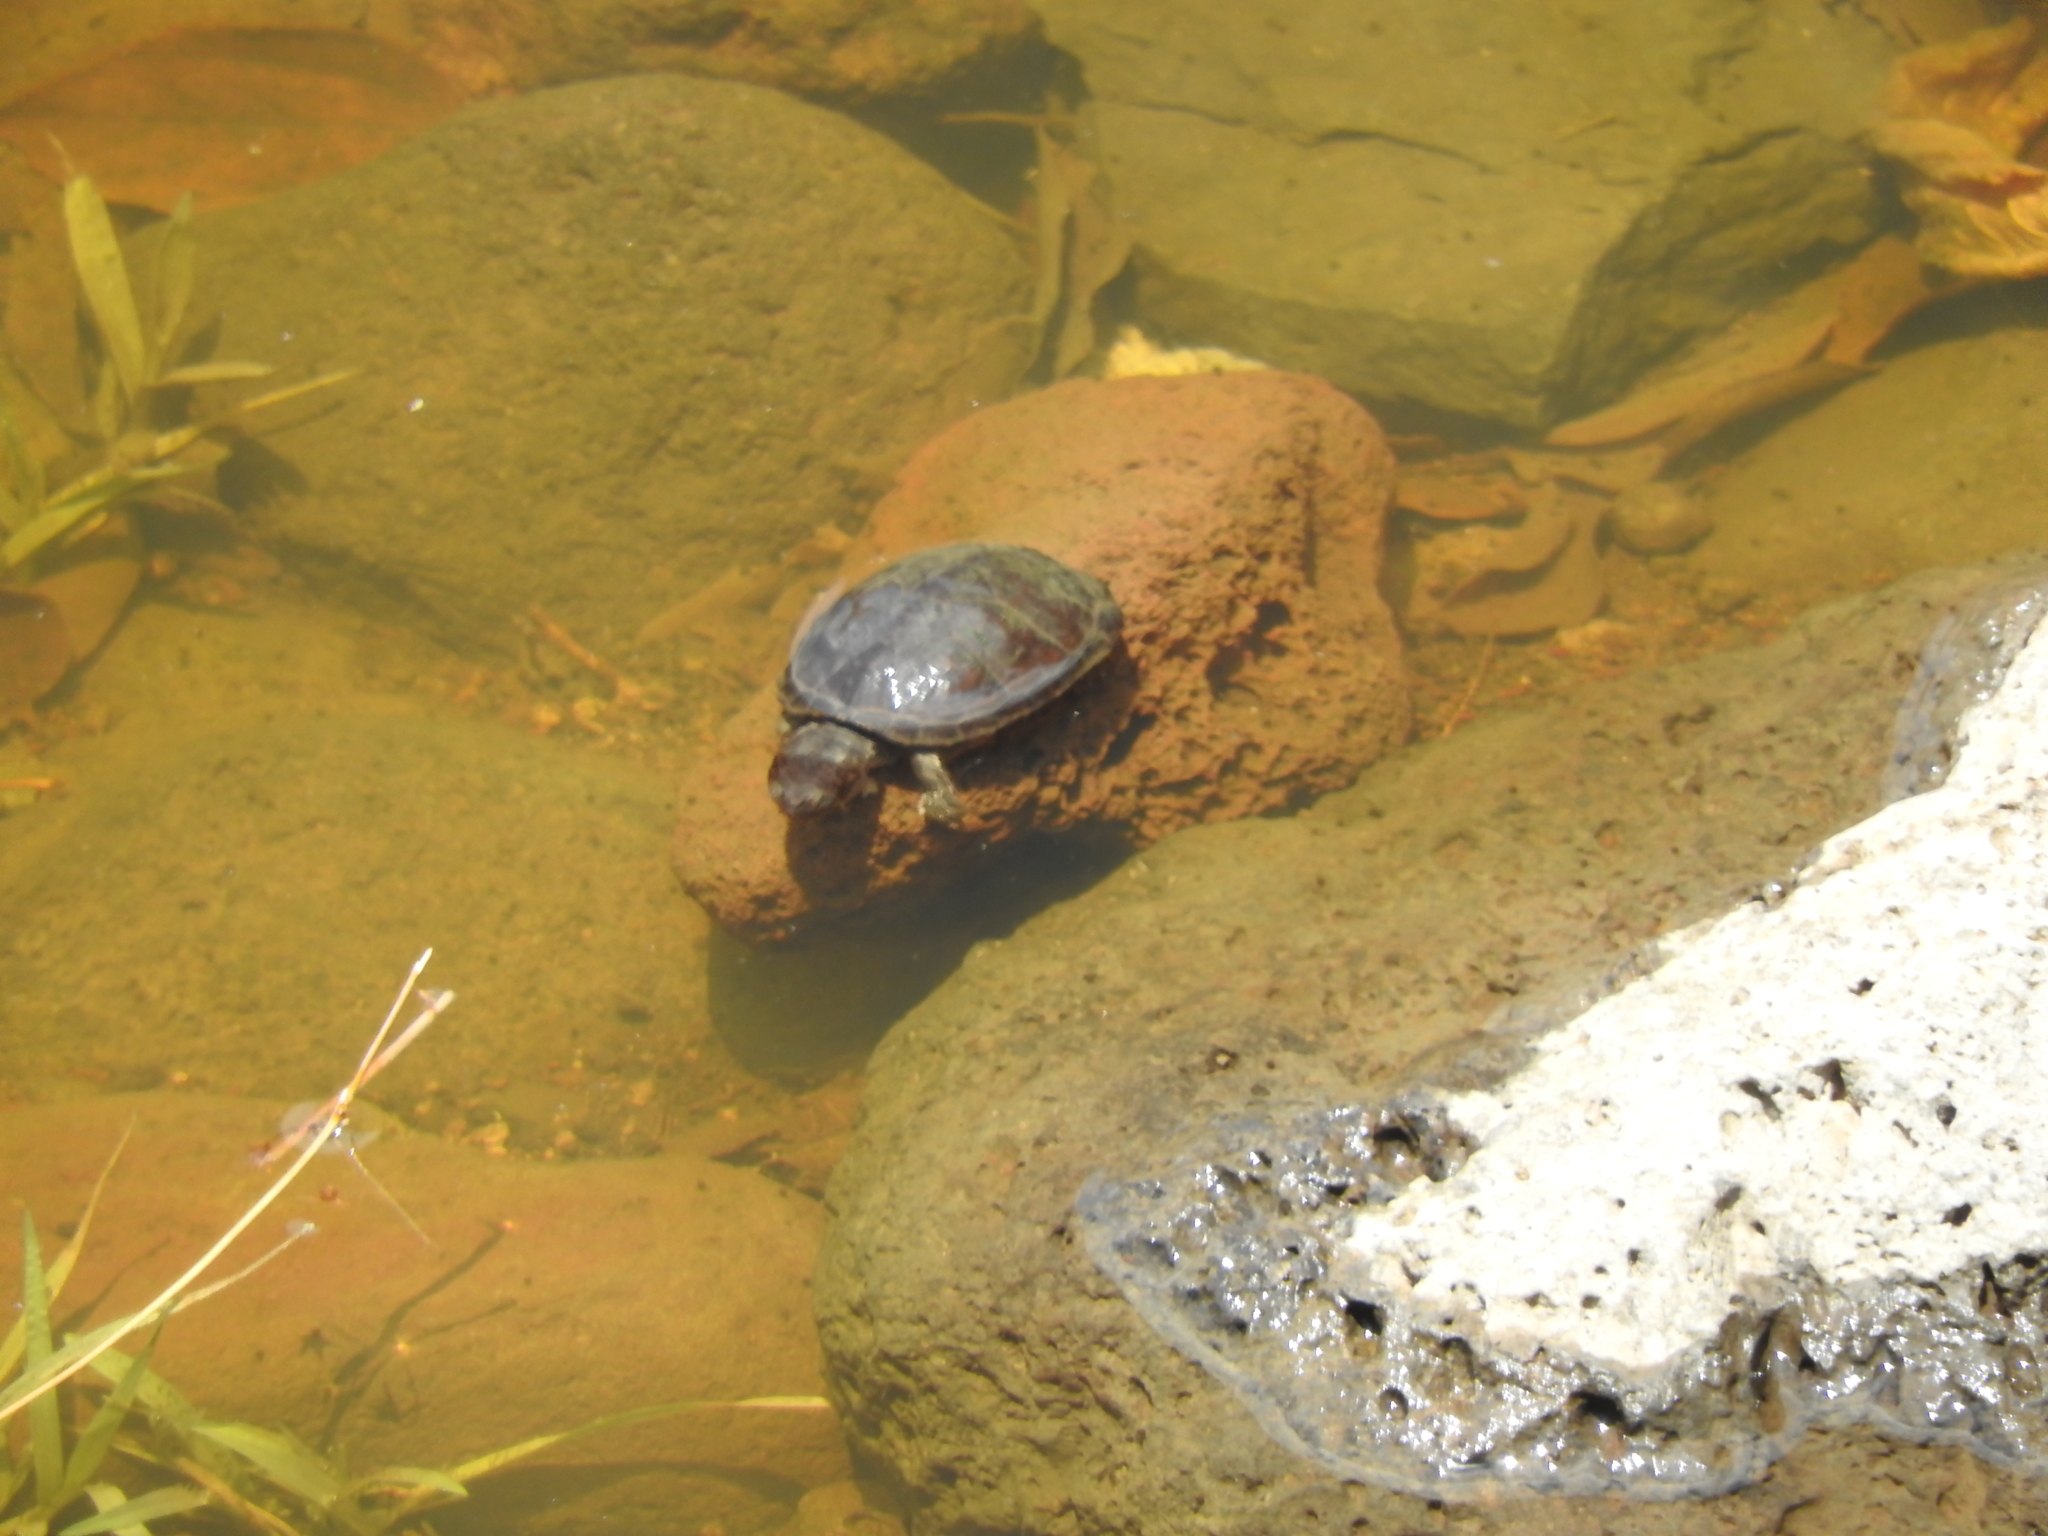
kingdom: Animalia
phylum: Chordata
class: Testudines
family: Kinosternidae
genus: Kinosternon
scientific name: Kinosternon hirtipes
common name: Rough-footed mud turtle
